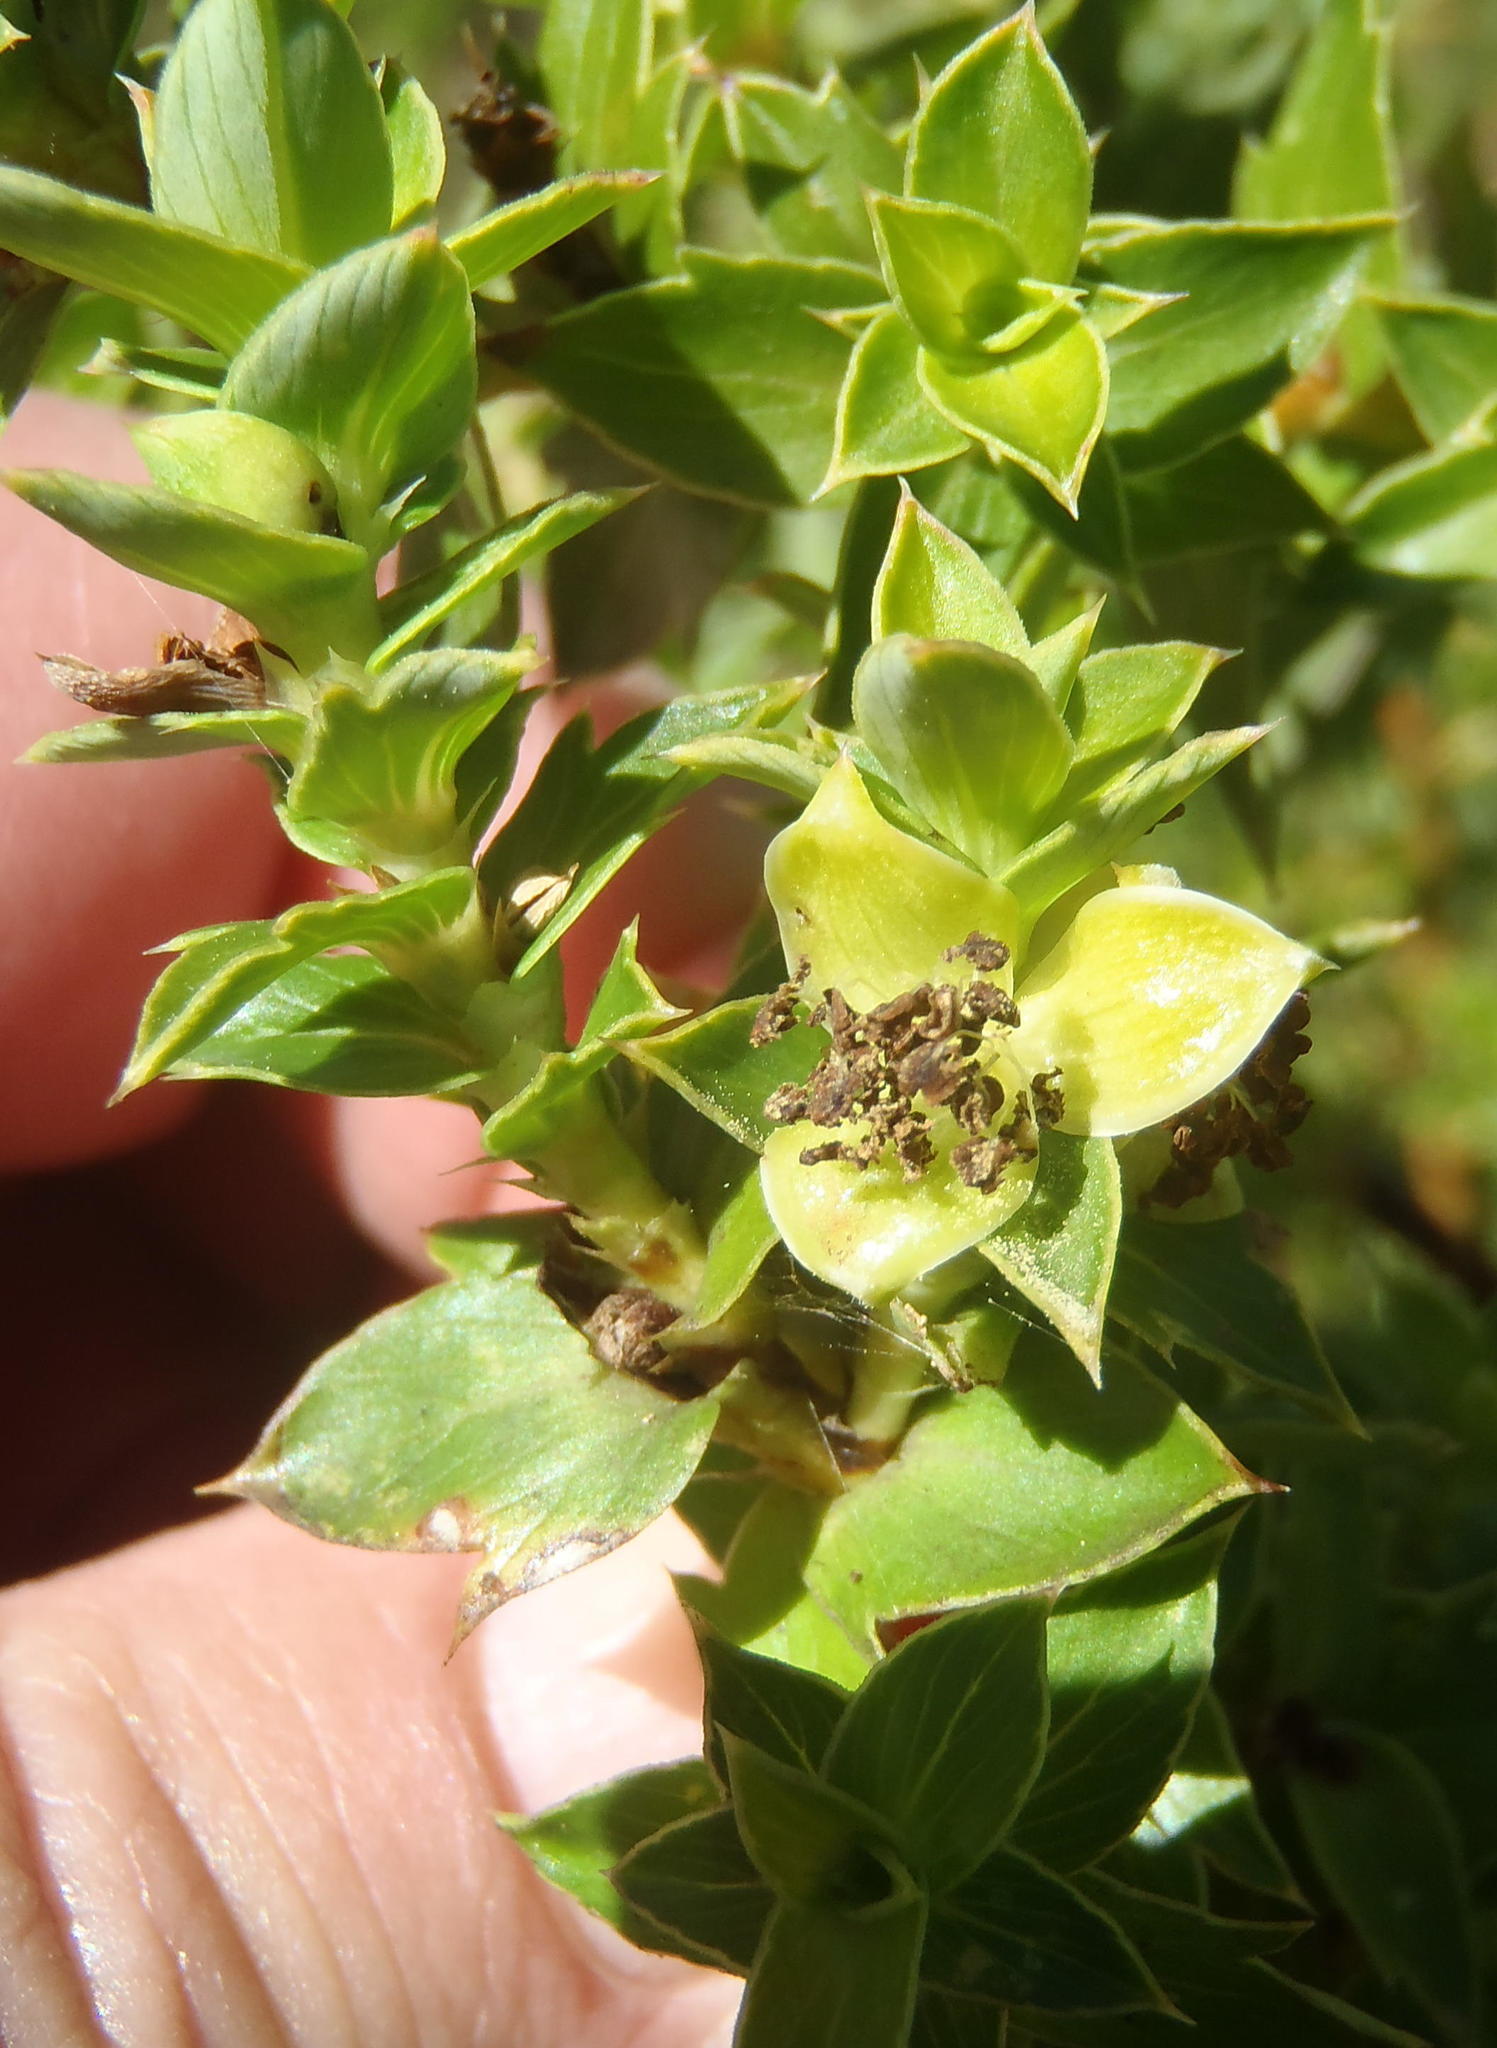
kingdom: Plantae
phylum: Tracheophyta
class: Magnoliopsida
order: Rosales
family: Rosaceae
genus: Cliffortia
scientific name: Cliffortia ilicifolia
